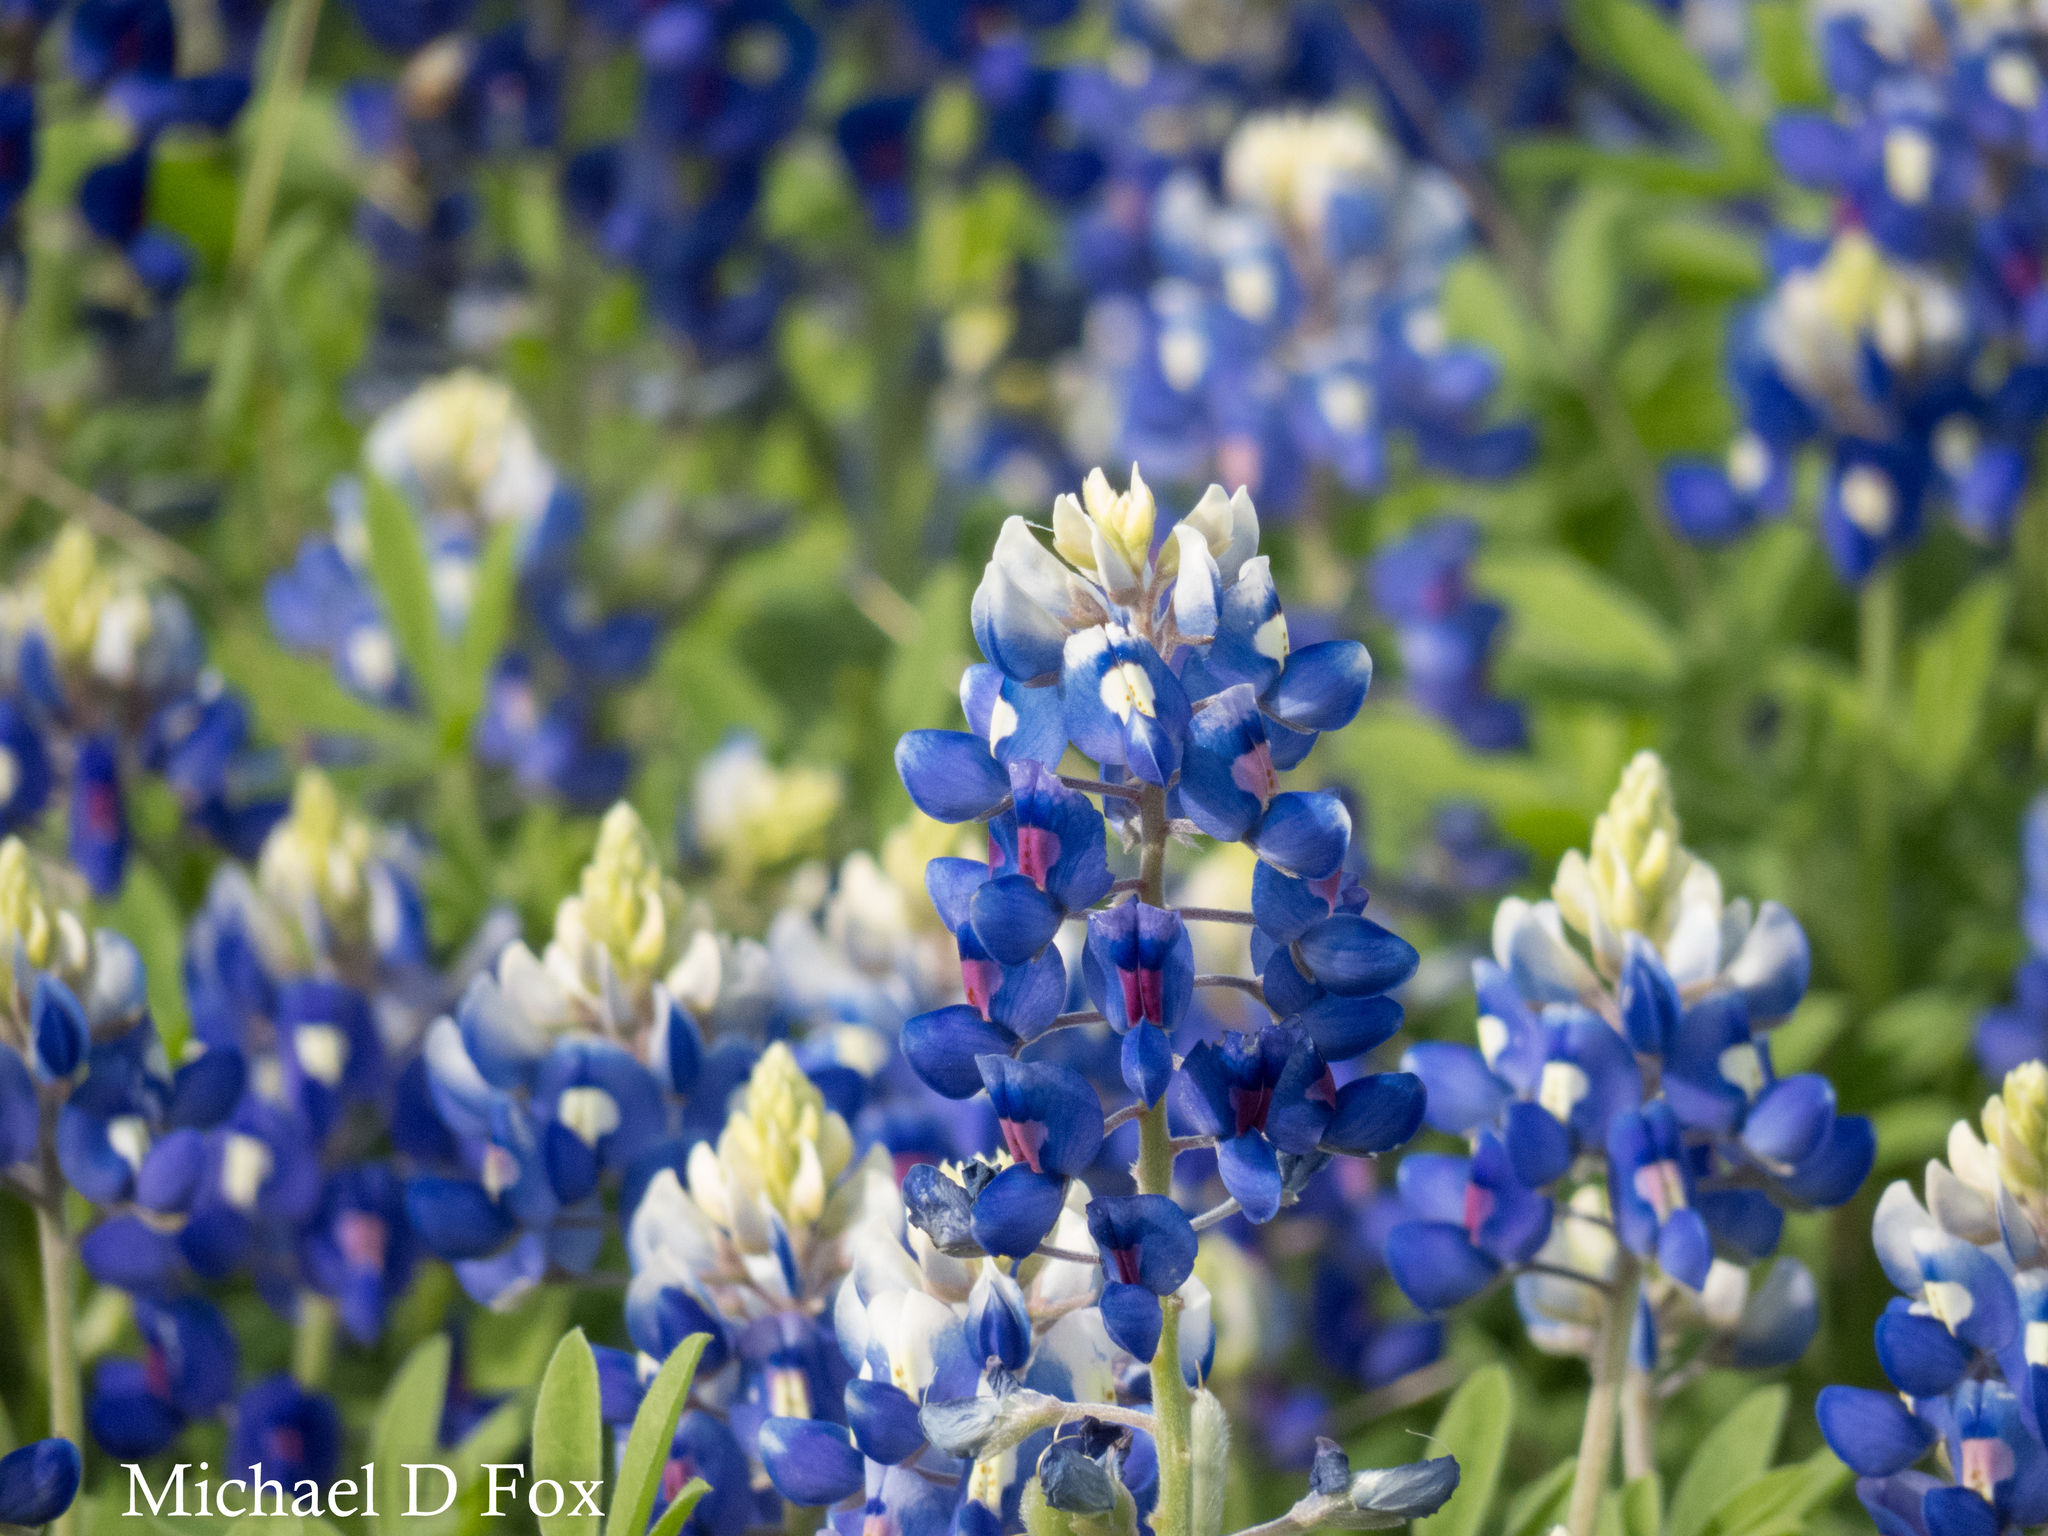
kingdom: Plantae
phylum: Tracheophyta
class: Magnoliopsida
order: Fabales
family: Fabaceae
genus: Lupinus
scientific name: Lupinus texensis
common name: Texas bluebonnet
